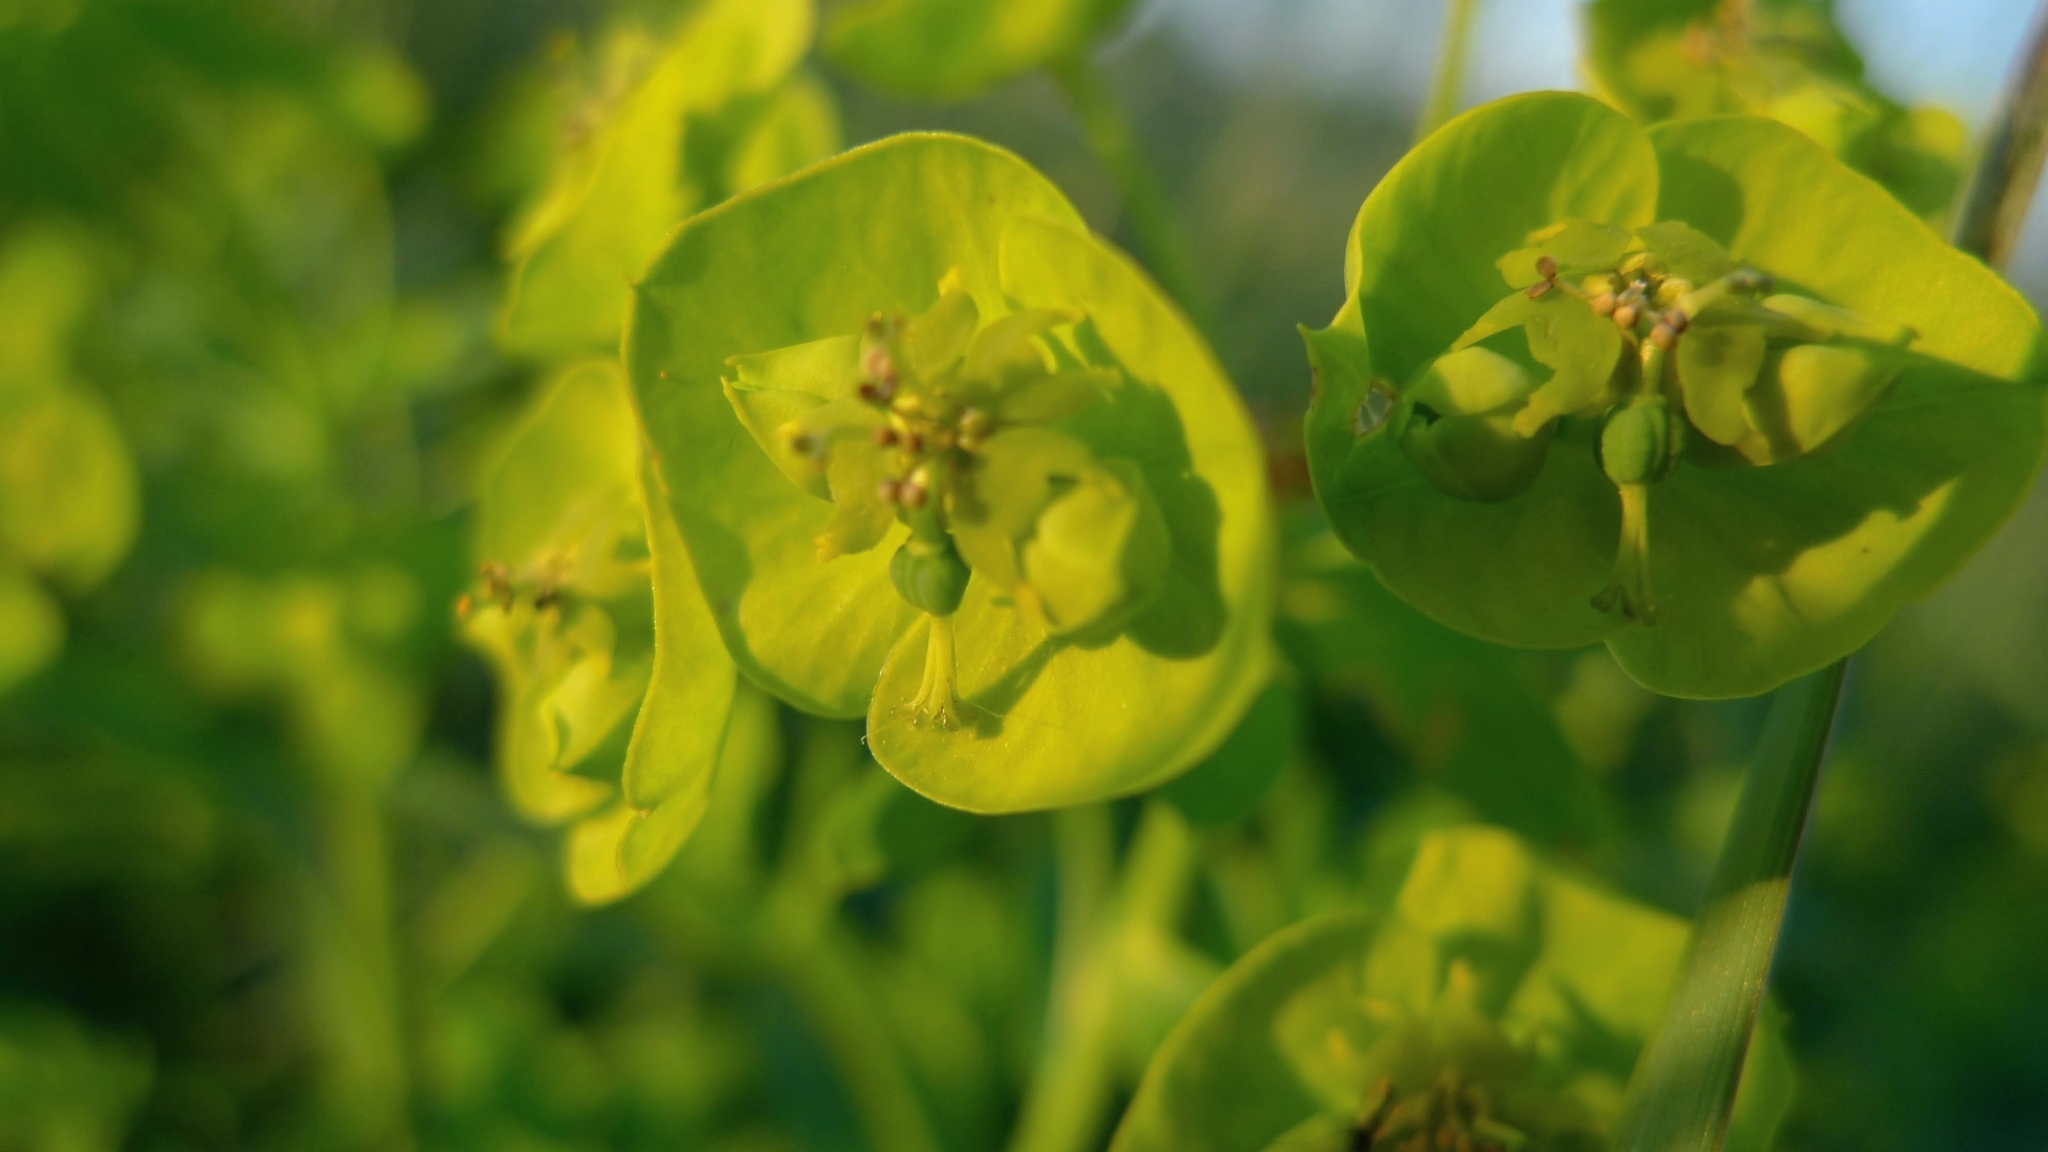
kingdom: Plantae
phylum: Tracheophyta
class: Magnoliopsida
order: Malpighiales
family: Euphorbiaceae
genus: Euphorbia
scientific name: Euphorbia esula
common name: Leafy spurge
